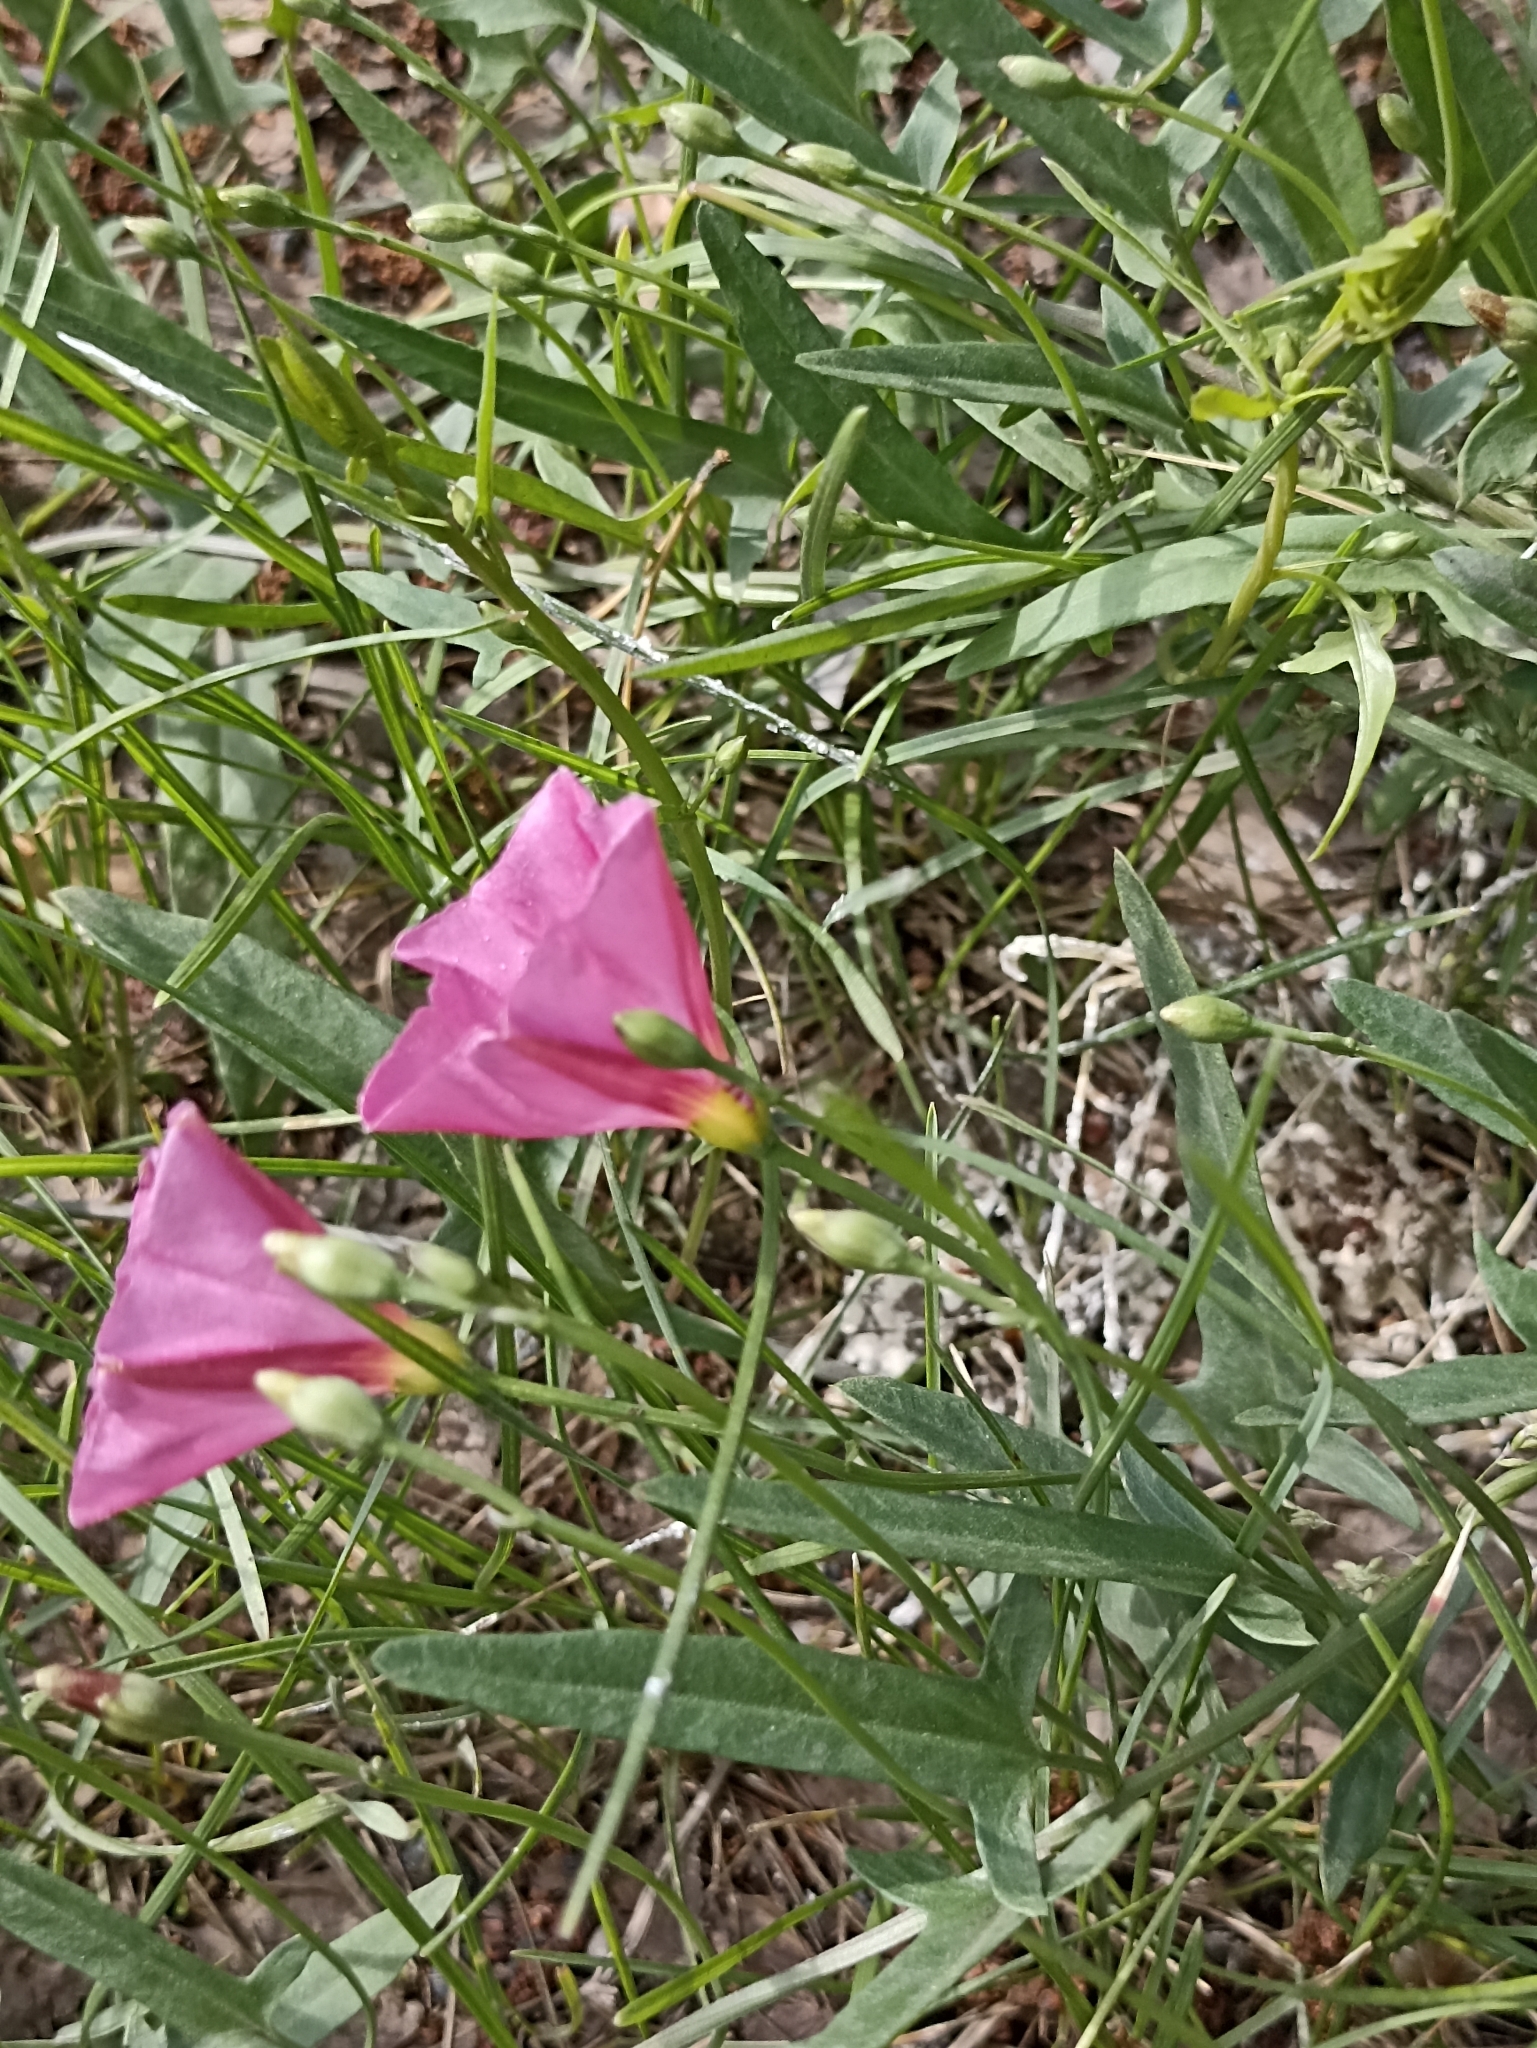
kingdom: Plantae
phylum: Tracheophyta
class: Magnoliopsida
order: Solanales
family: Convolvulaceae
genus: Convolvulus
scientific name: Convolvulus chinensis
